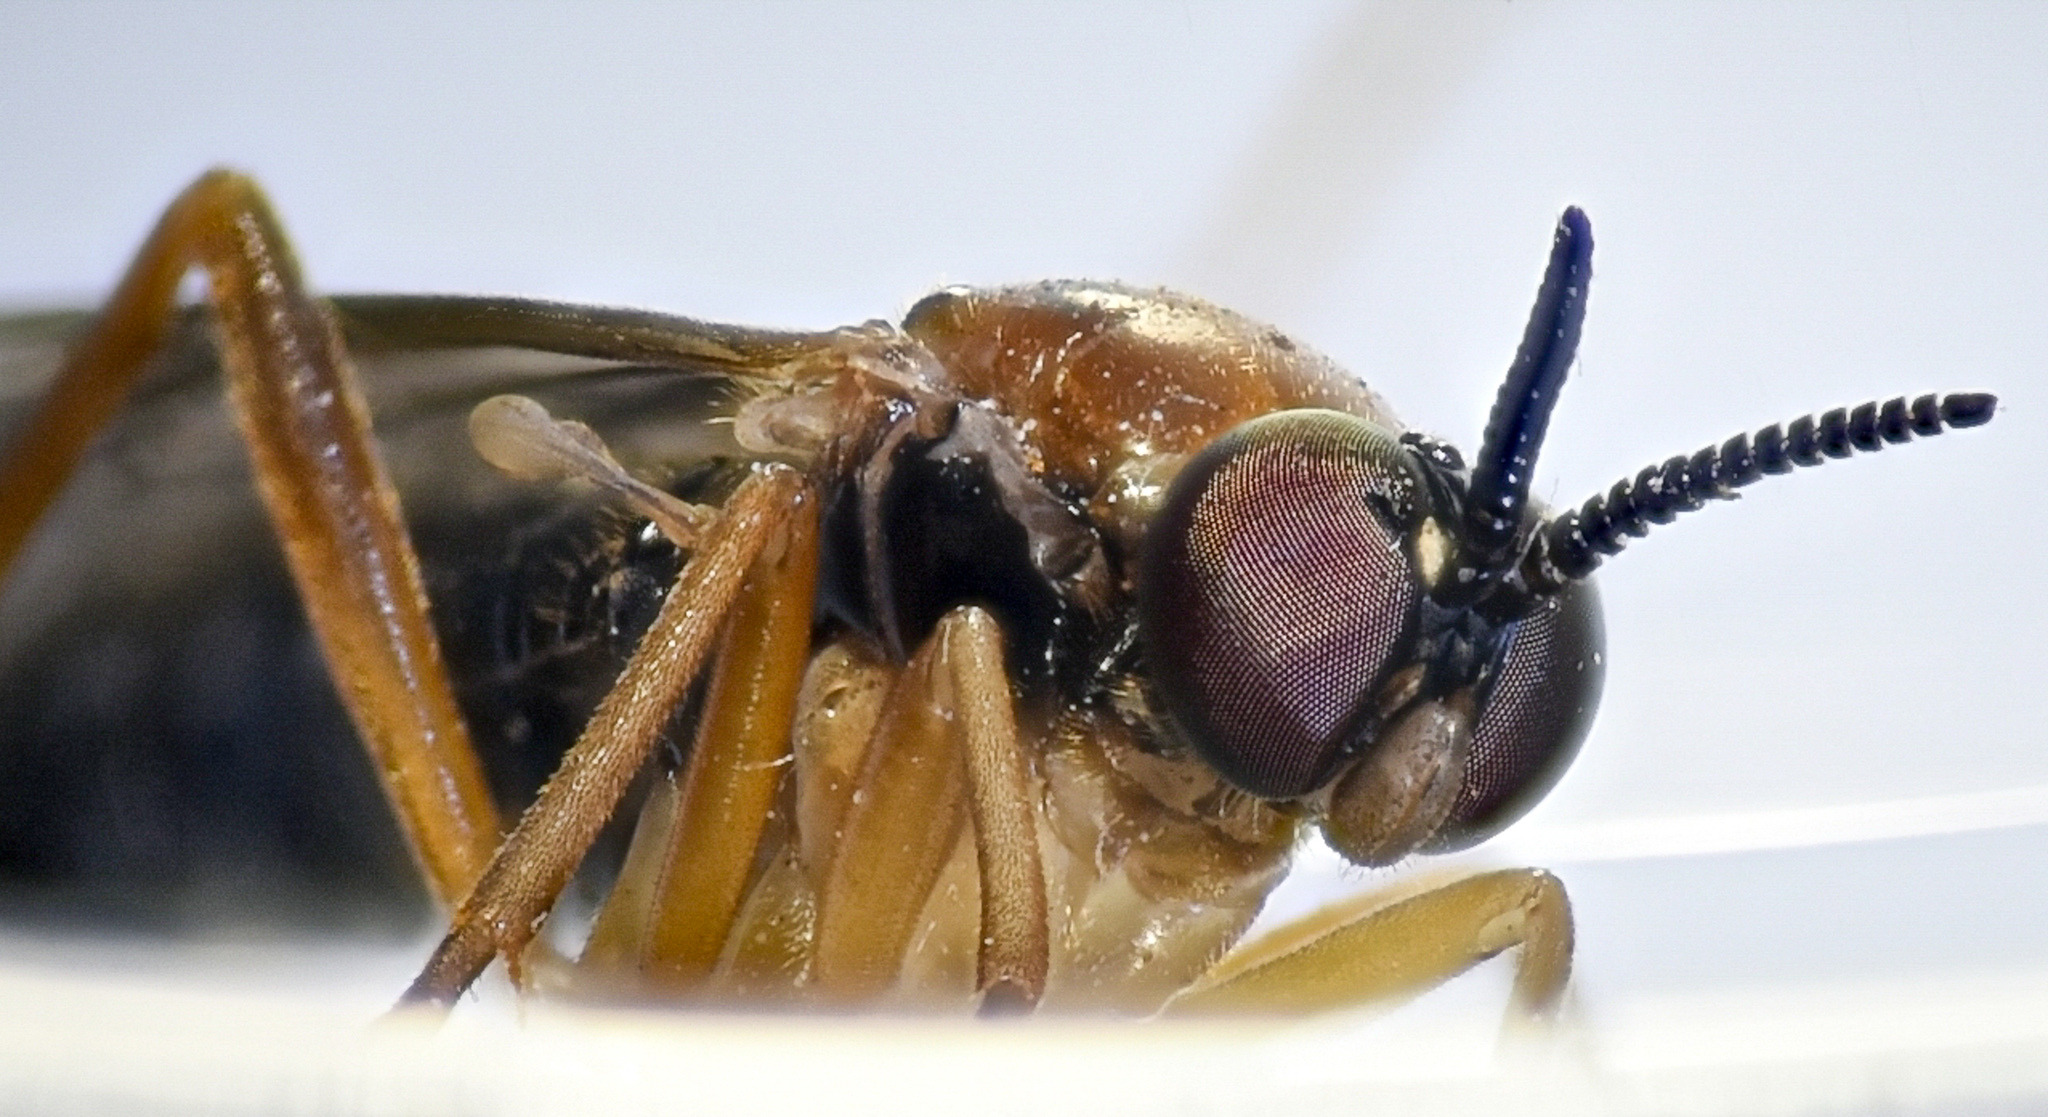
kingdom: Animalia
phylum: Arthropoda
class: Insecta
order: Diptera
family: Xylophagidae
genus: Rachicerus
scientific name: Rachicerus honestus
